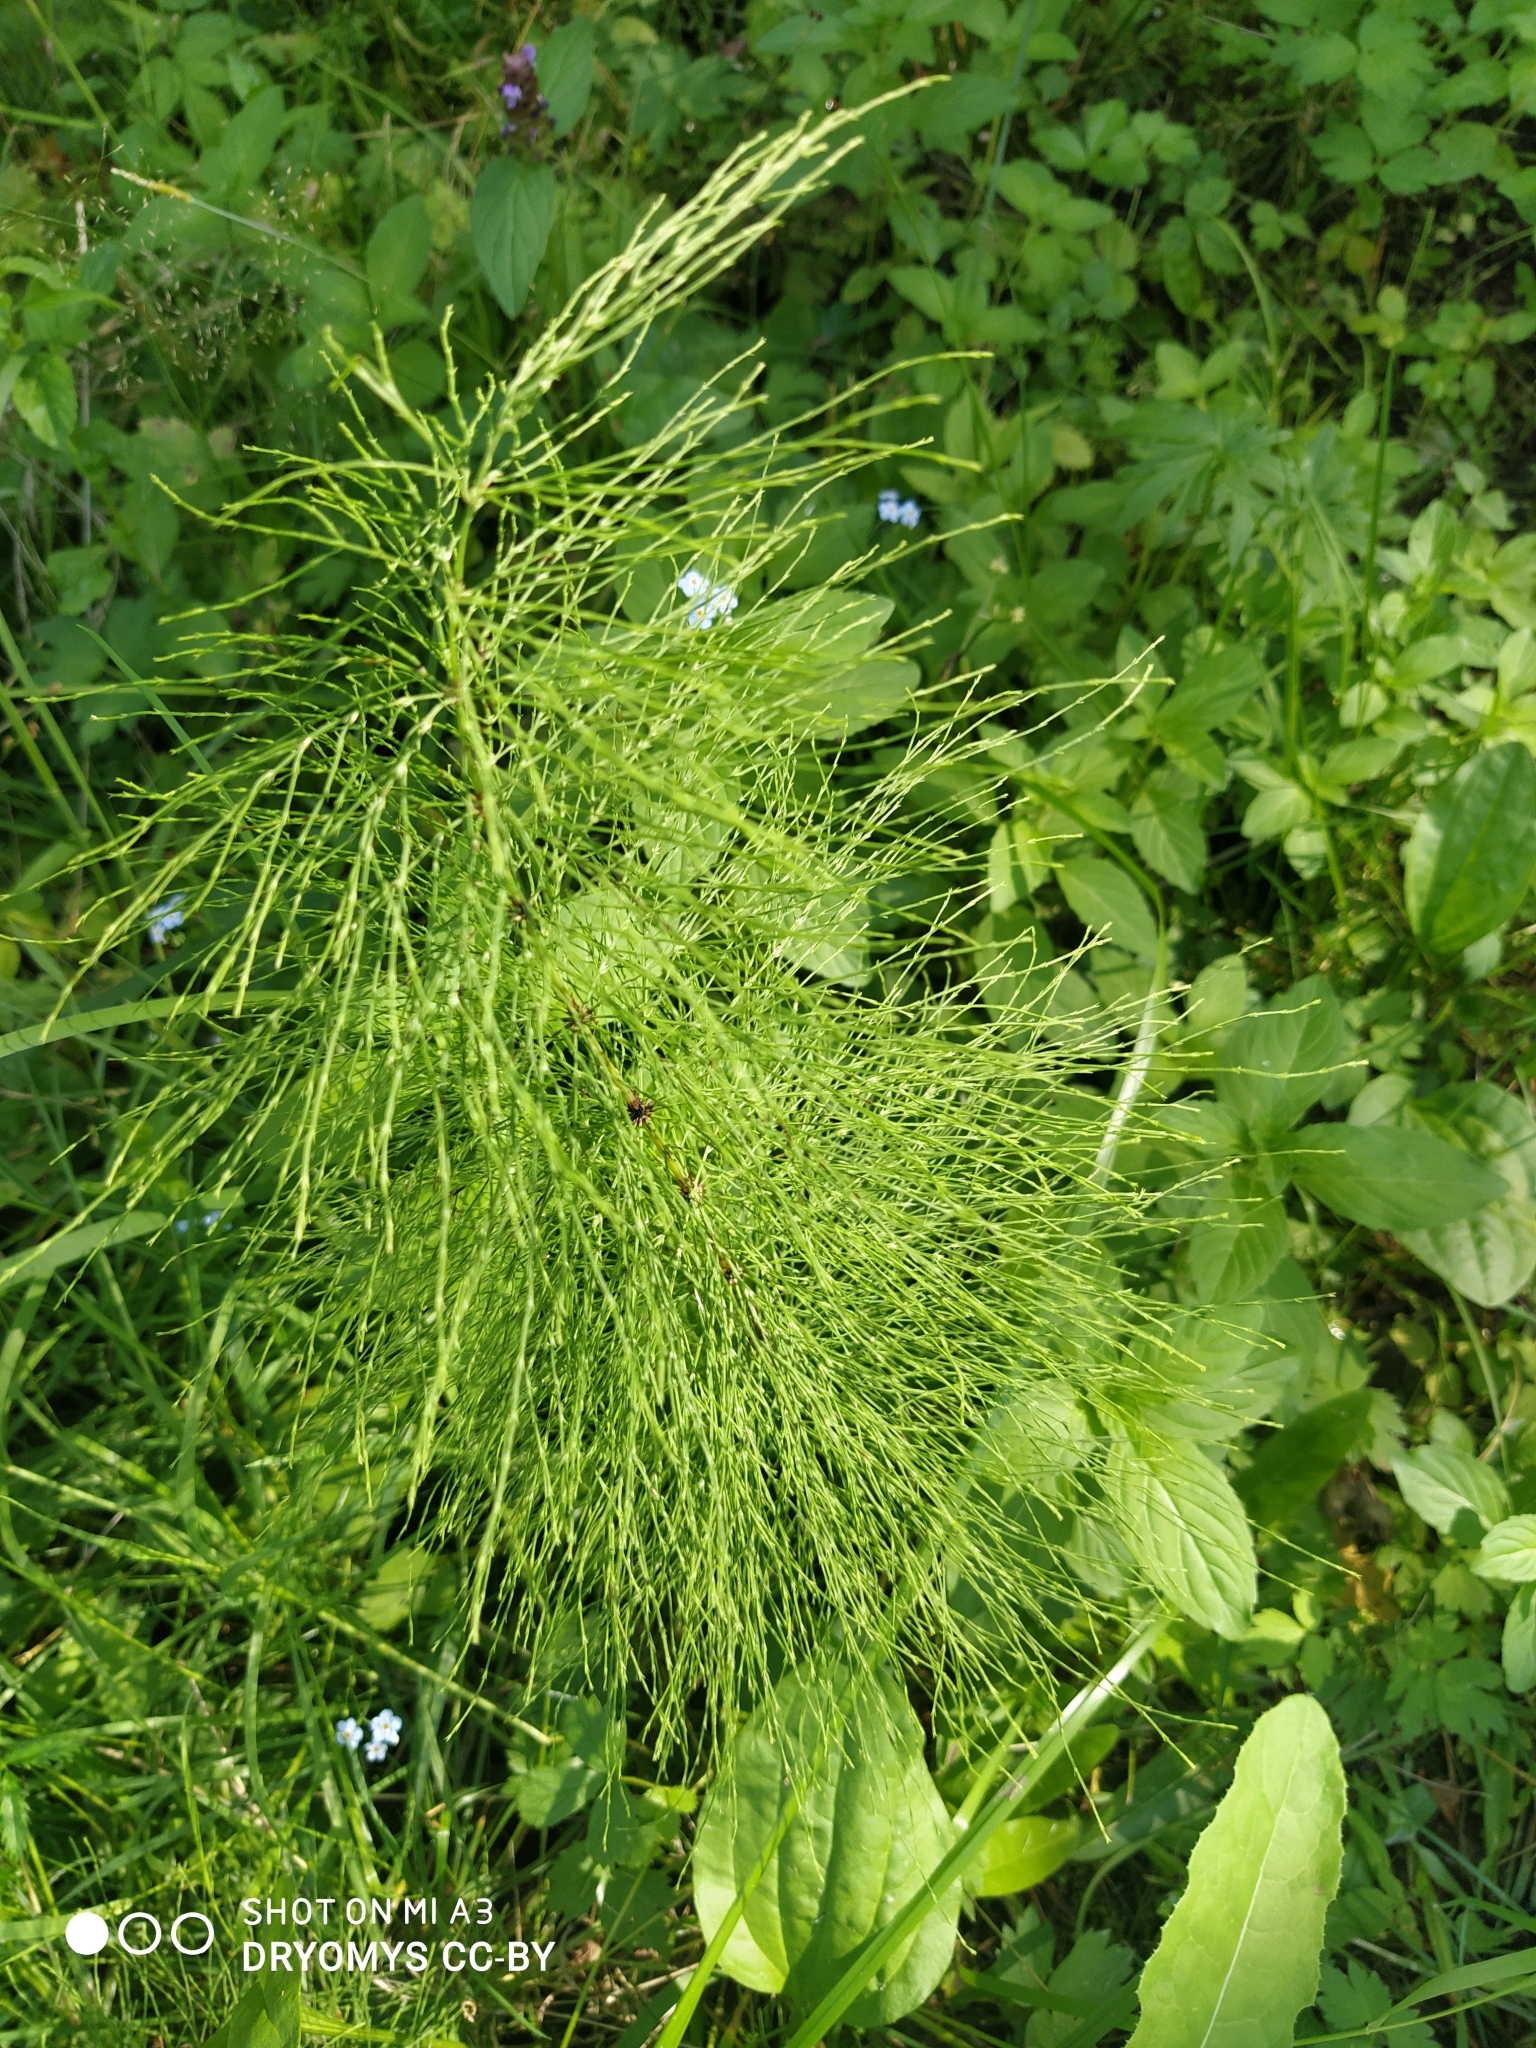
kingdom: Plantae
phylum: Tracheophyta
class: Polypodiopsida
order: Equisetales
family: Equisetaceae
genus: Equisetum
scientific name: Equisetum sylvaticum
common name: Wood horsetail
